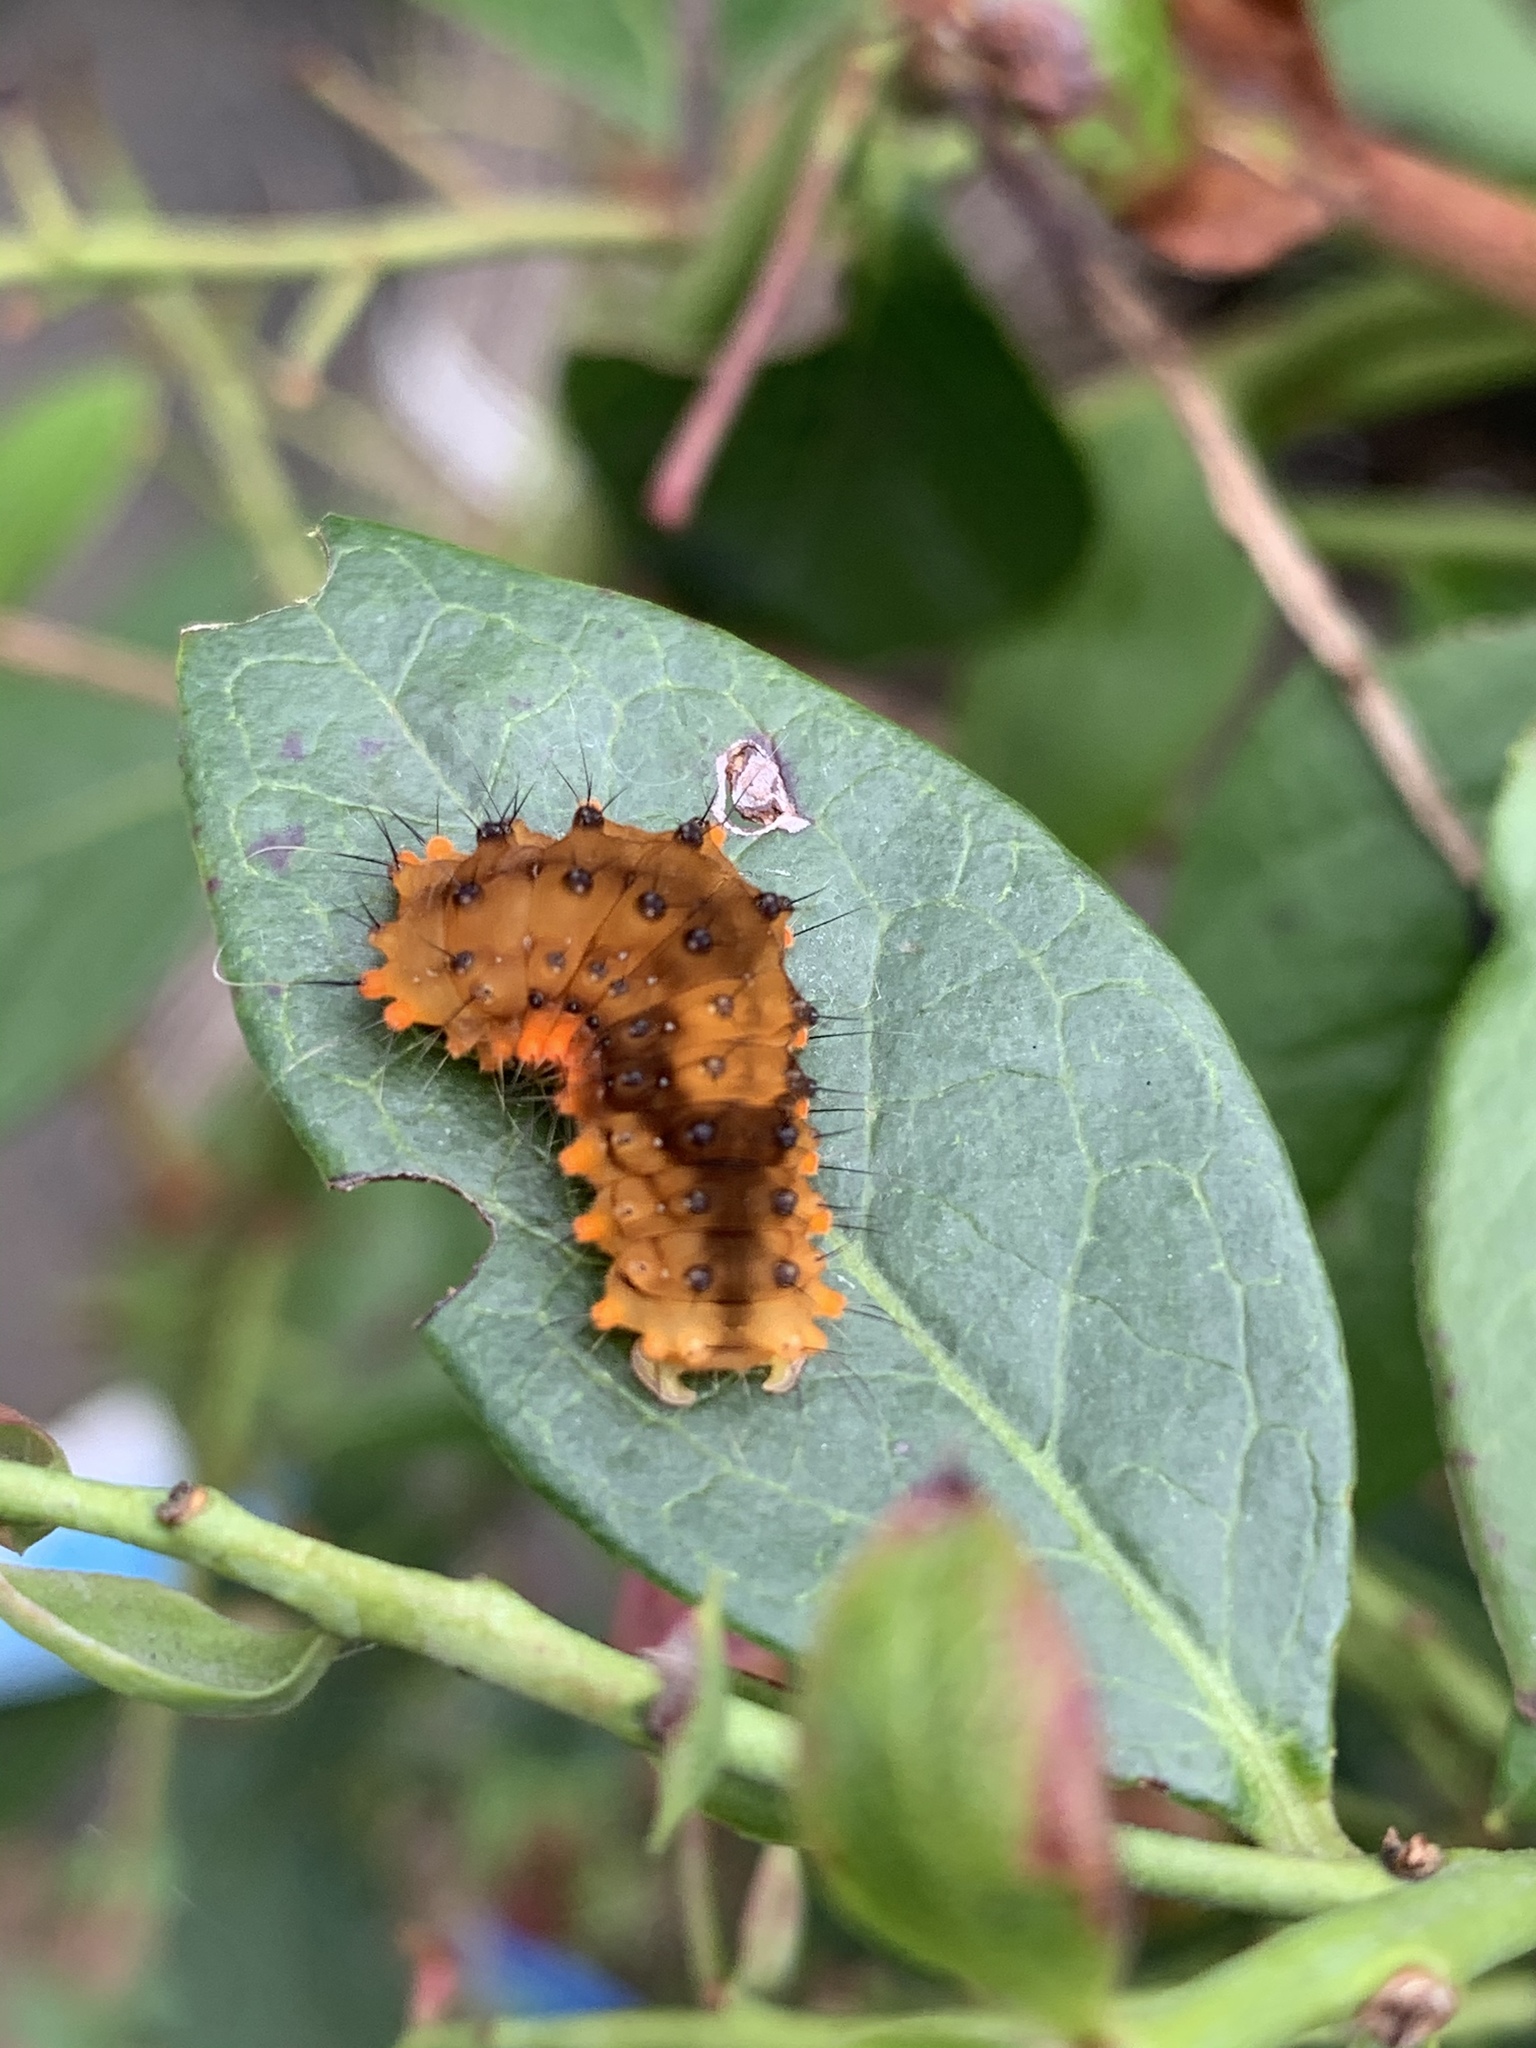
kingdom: Animalia
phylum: Arthropoda
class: Insecta
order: Lepidoptera
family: Zygaenidae
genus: Eterusia
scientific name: Eterusia aedea
